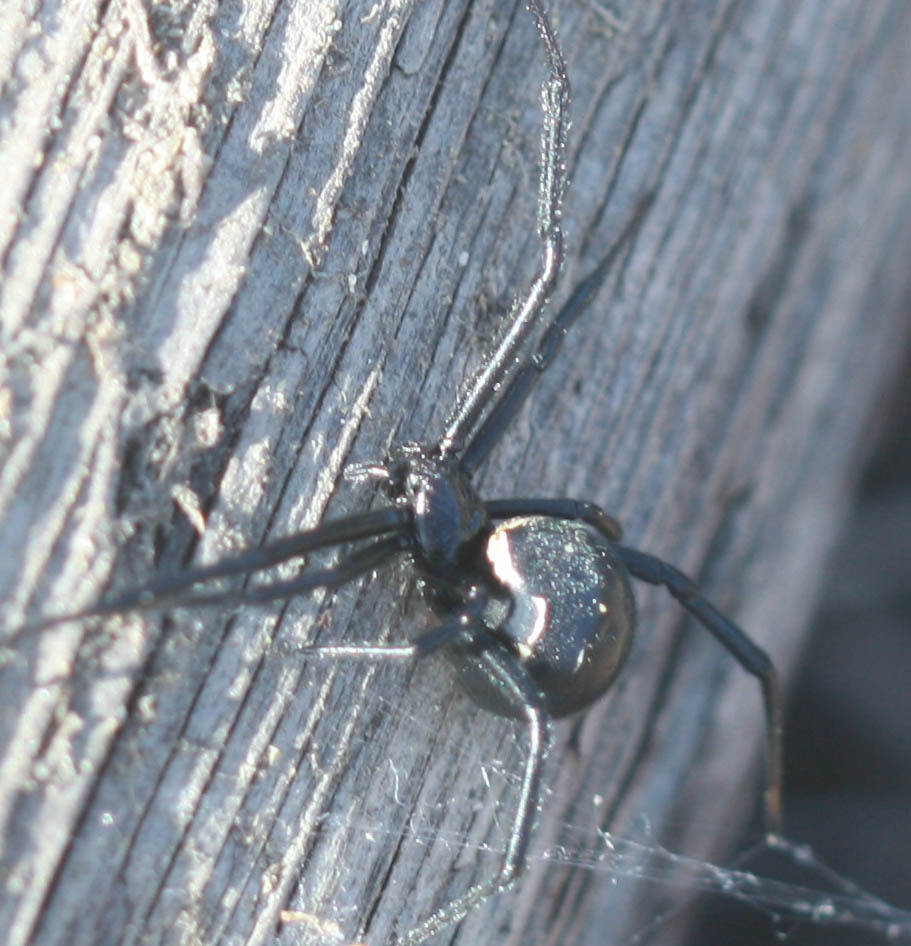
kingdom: Animalia
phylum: Arthropoda
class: Arachnida
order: Araneae
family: Theridiidae
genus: Latrodectus
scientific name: Latrodectus hesperus
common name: Western black widow
